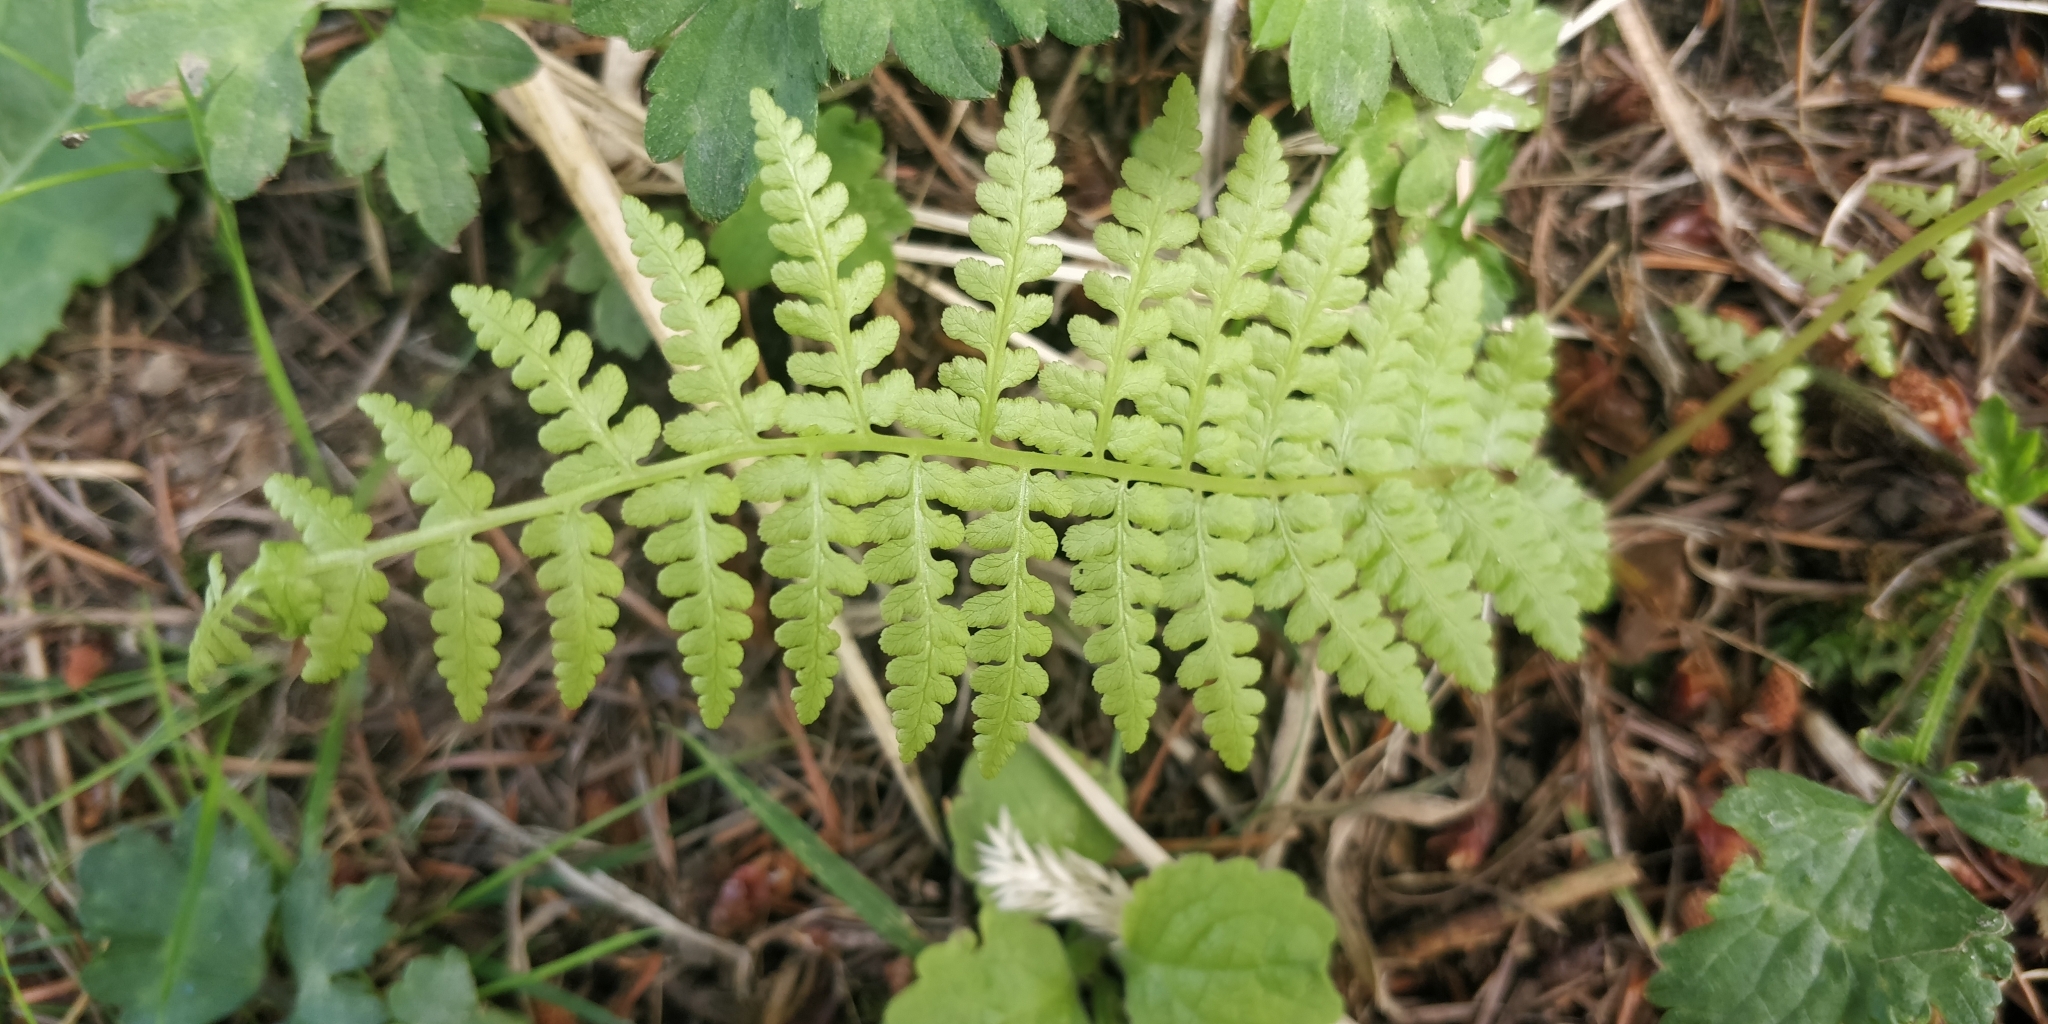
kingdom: Plantae
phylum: Tracheophyta
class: Polypodiopsida
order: Polypodiales
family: Athyriaceae
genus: Athyrium
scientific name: Athyrium filix-femina
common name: Lady fern
